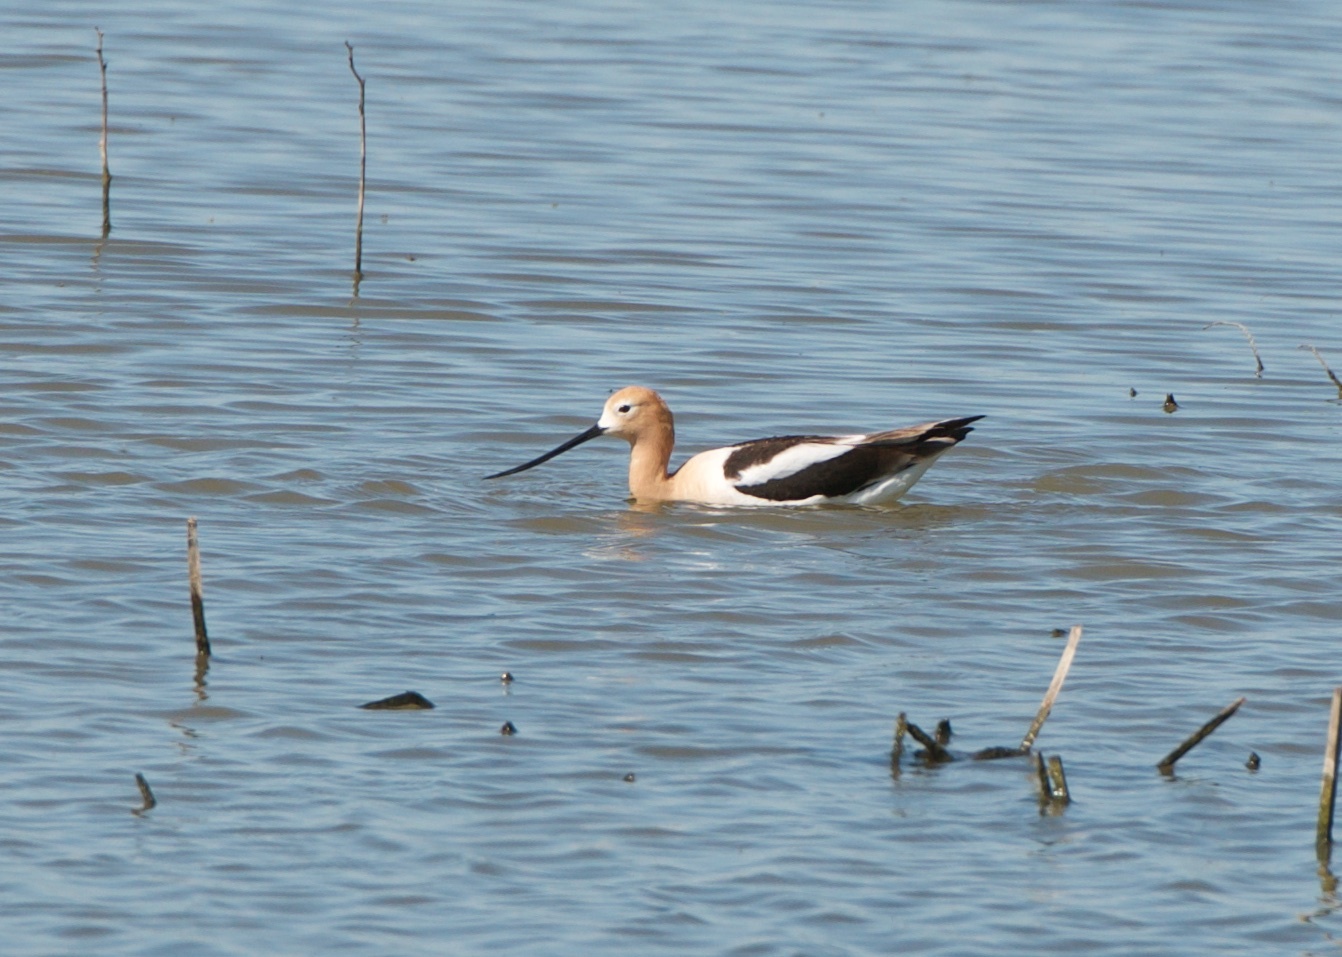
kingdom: Animalia
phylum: Chordata
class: Aves
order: Charadriiformes
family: Recurvirostridae
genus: Recurvirostra
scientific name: Recurvirostra americana
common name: American avocet
